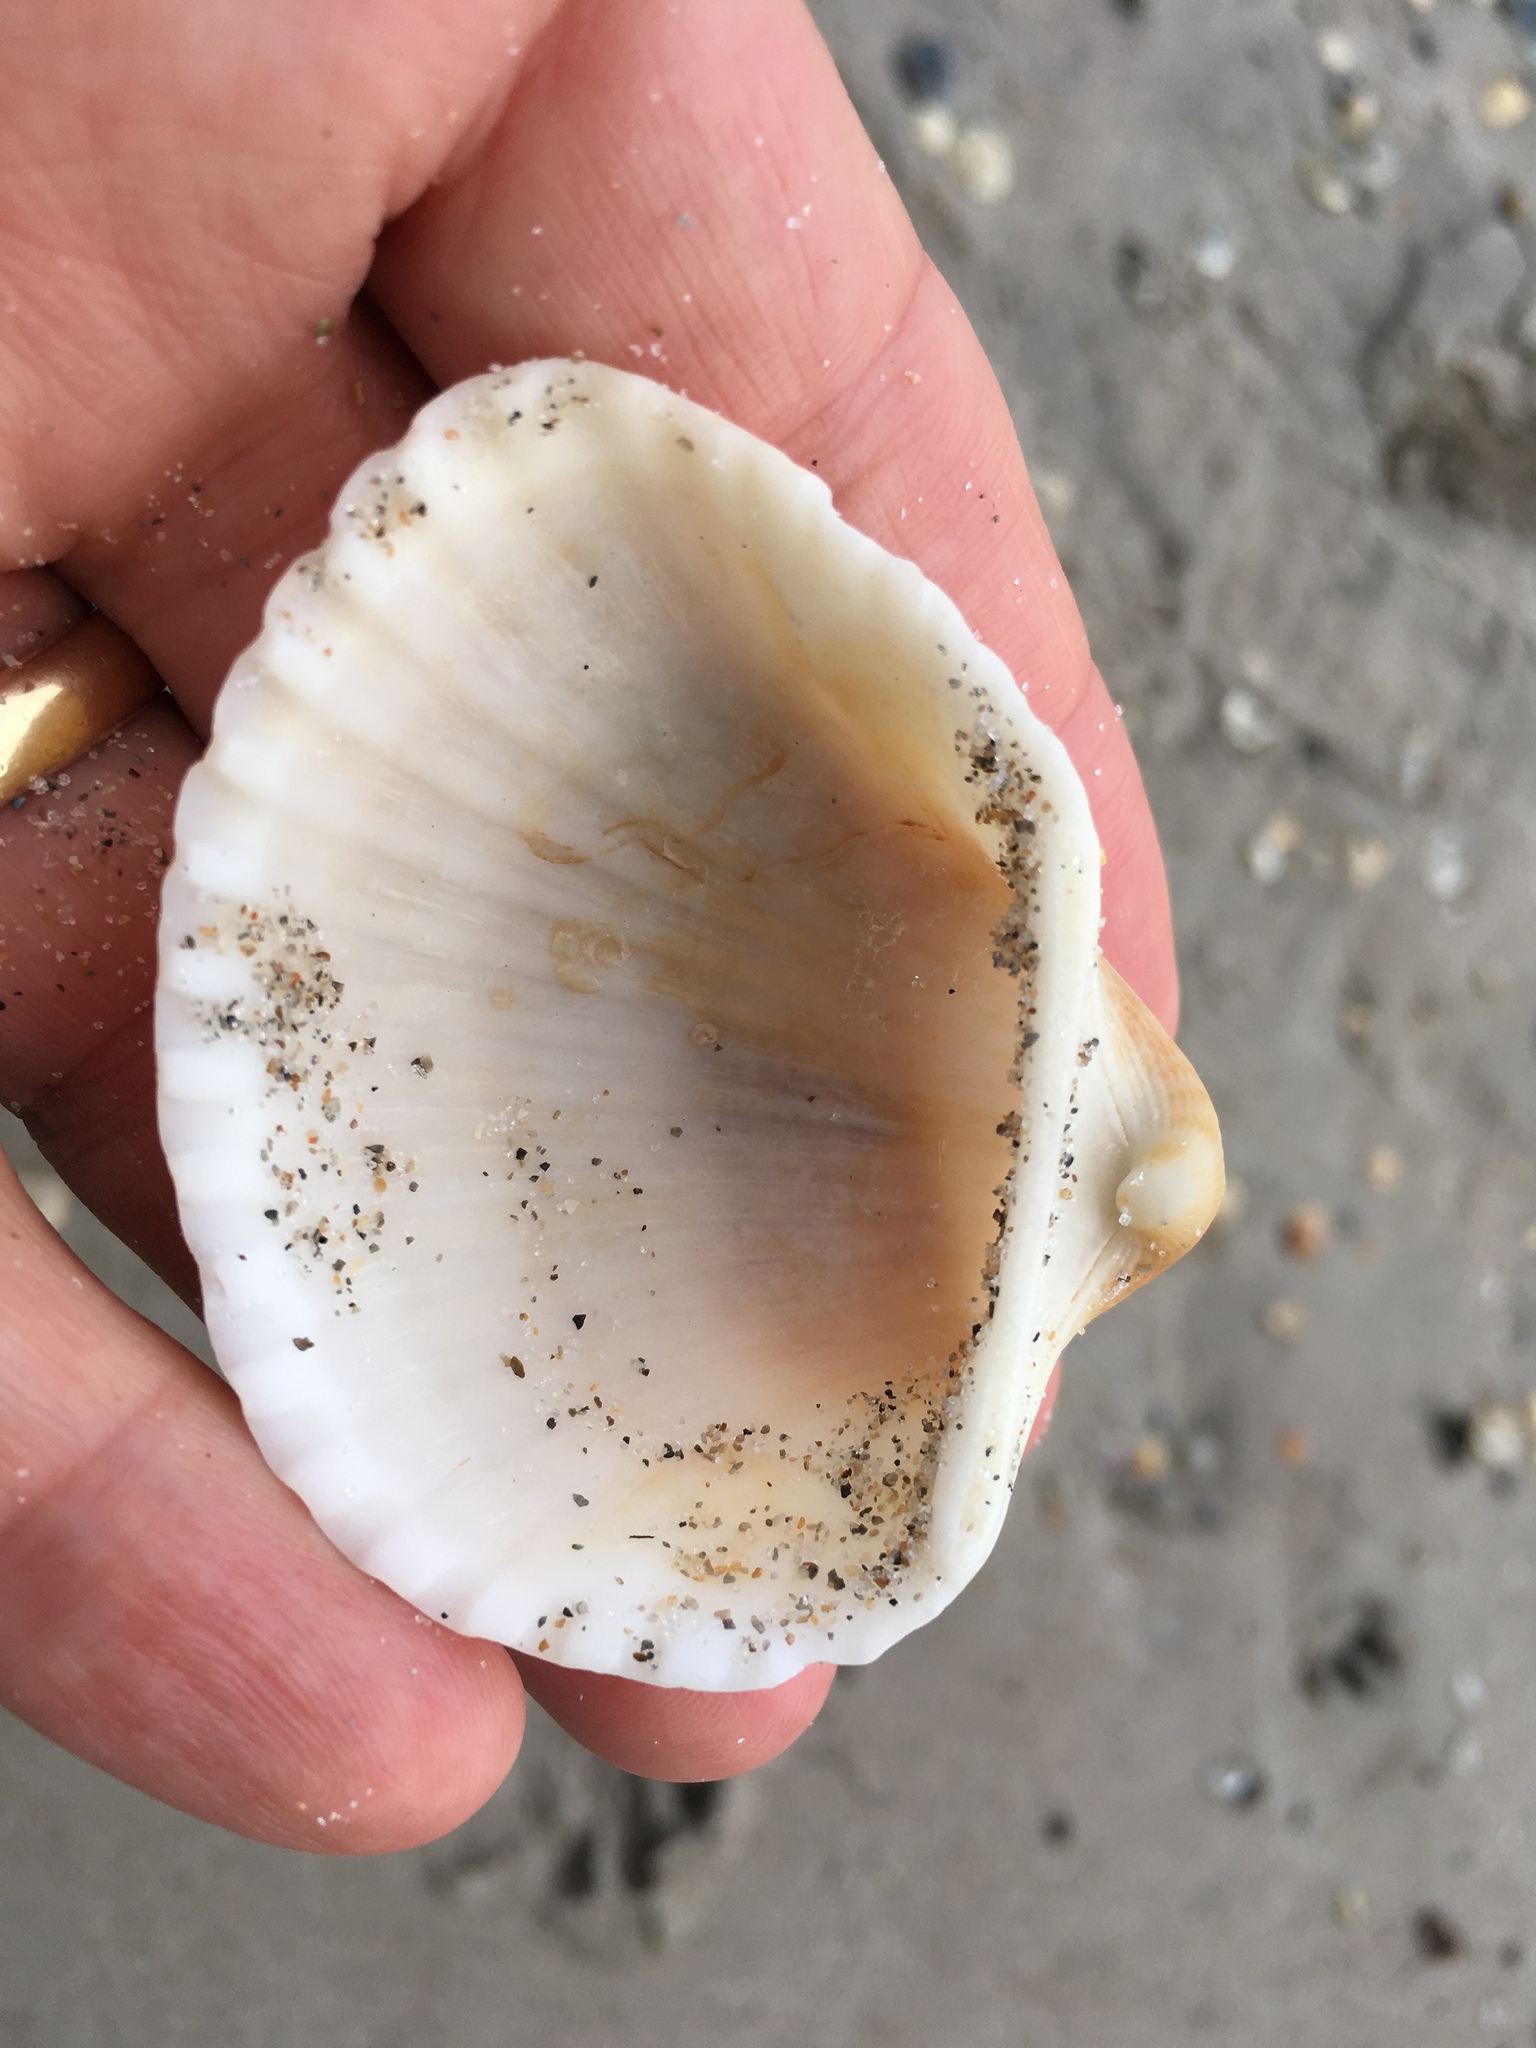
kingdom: Animalia
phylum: Mollusca
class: Bivalvia
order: Arcida
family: Arcidae
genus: Anadara
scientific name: Anadara brasiliana
